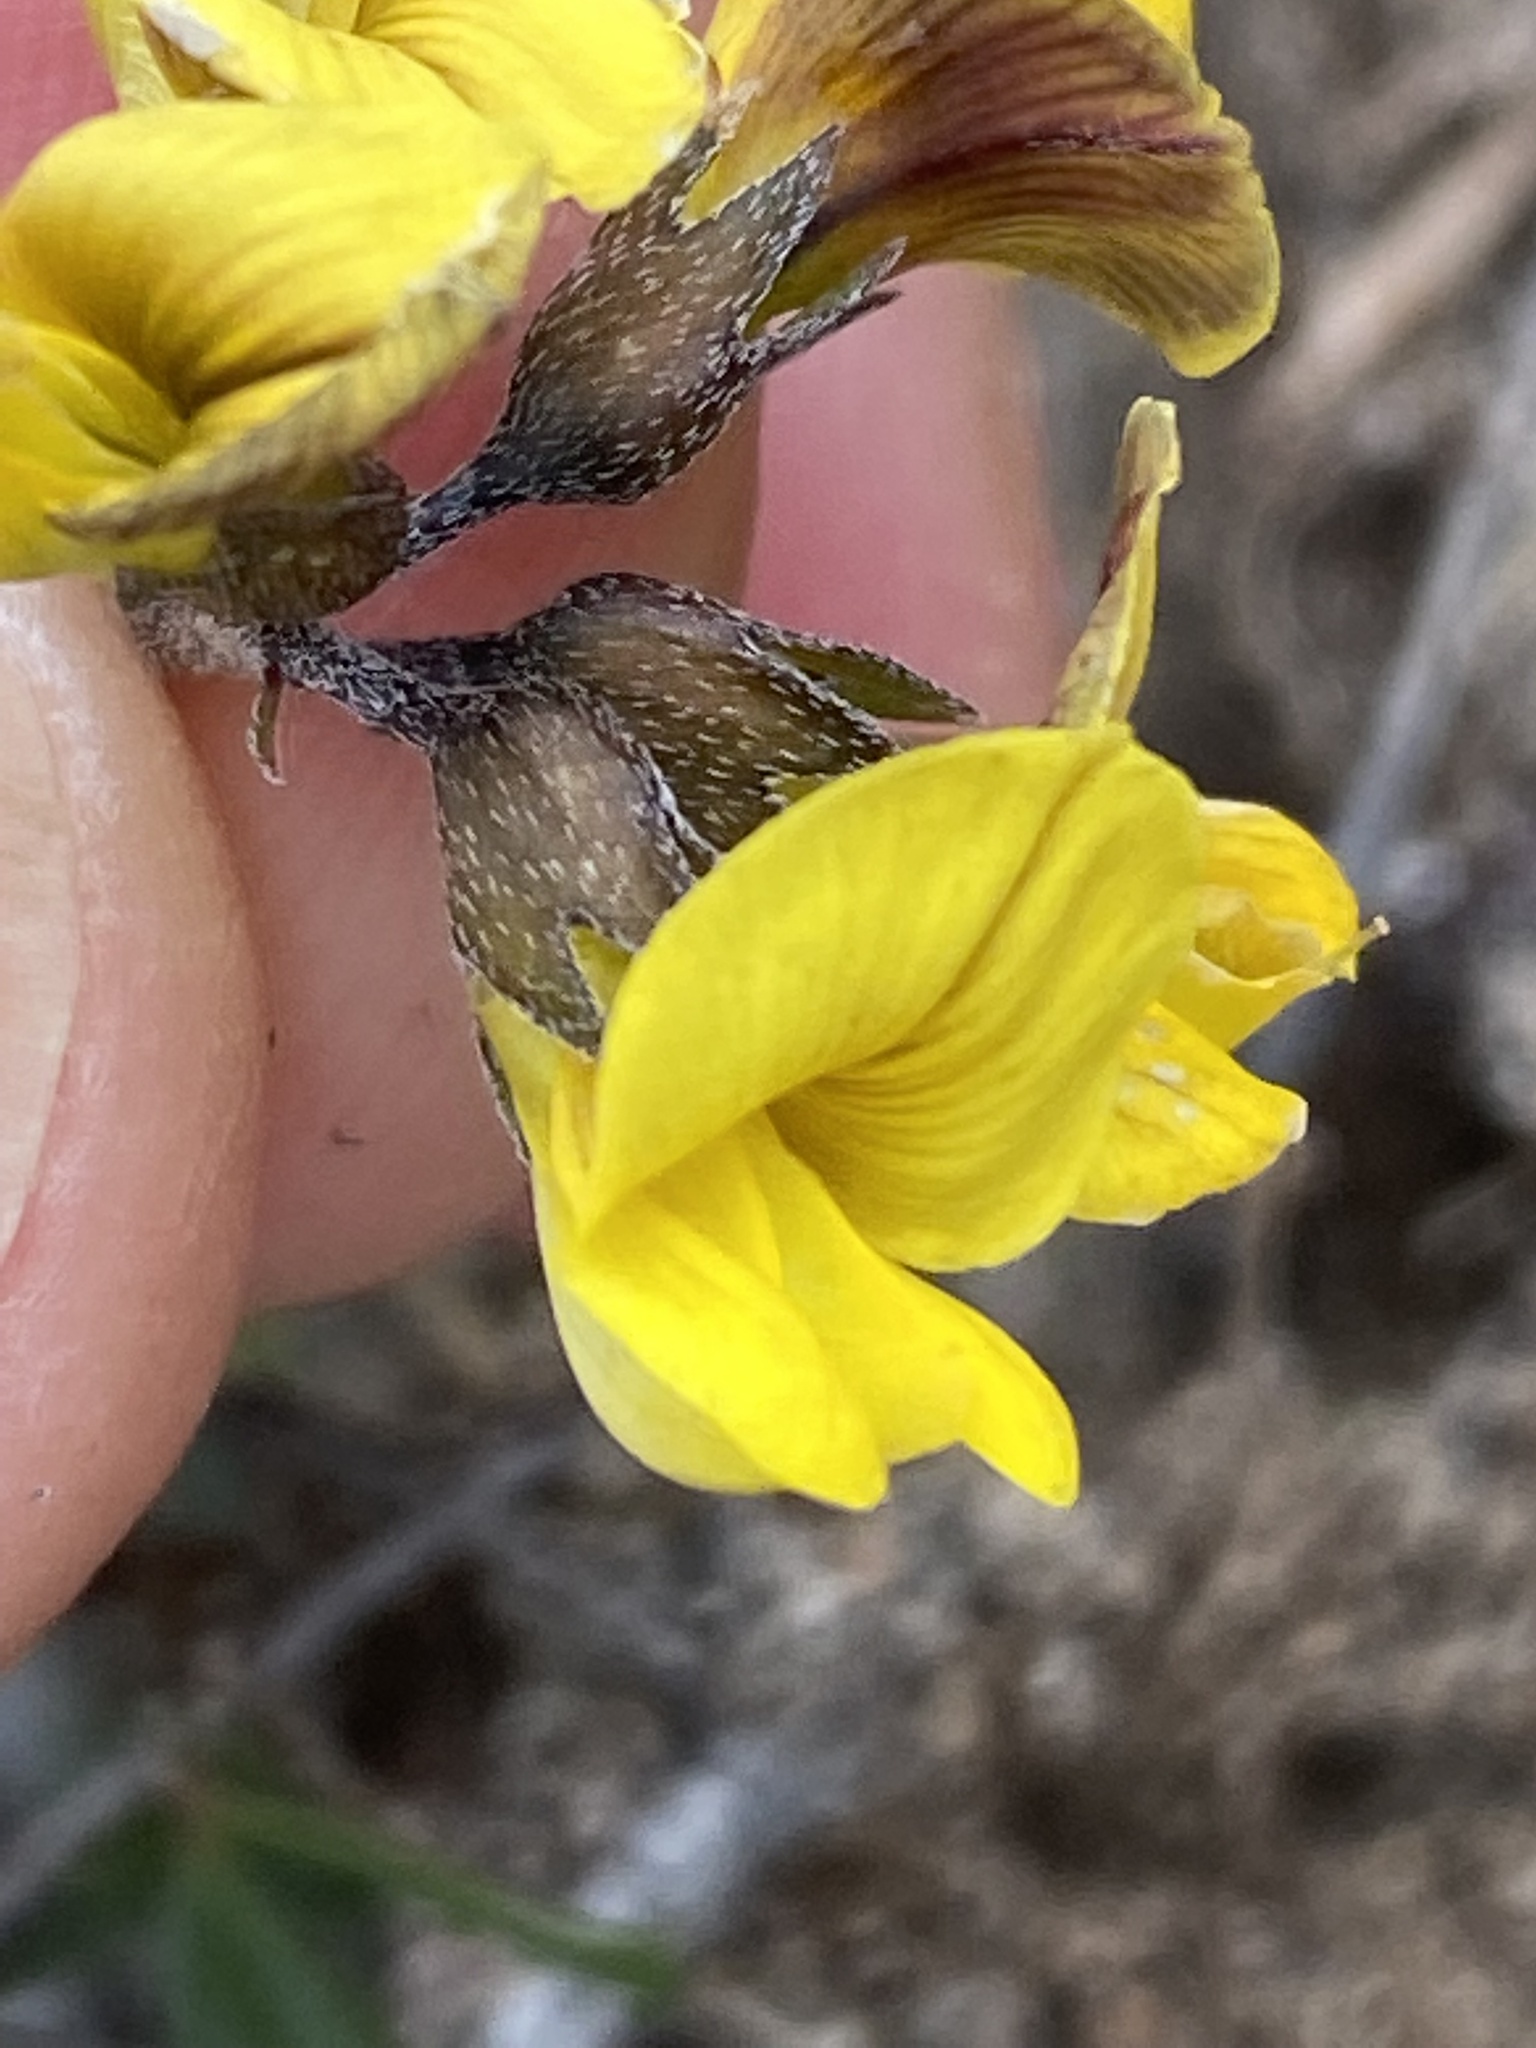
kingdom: Plantae
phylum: Tracheophyta
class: Magnoliopsida
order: Fabales
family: Fabaceae
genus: Lotononis
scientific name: Lotononis umbellata
